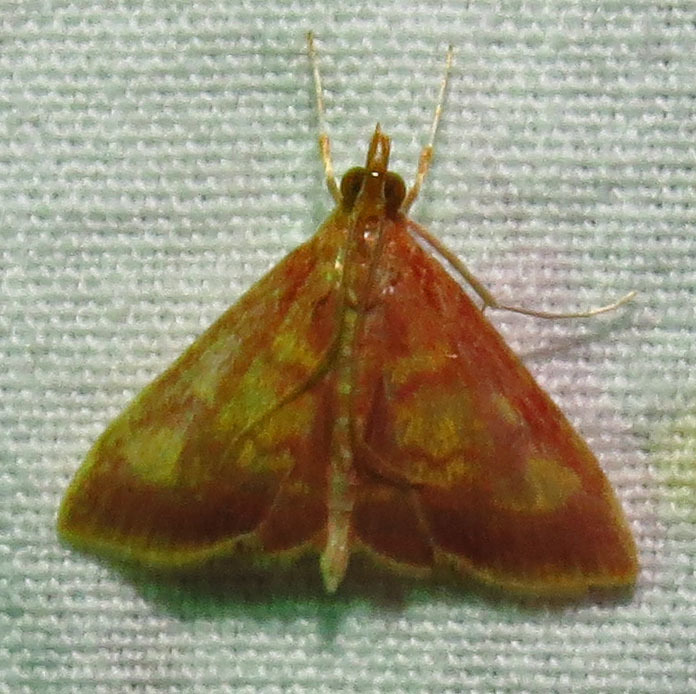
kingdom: Animalia
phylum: Arthropoda
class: Insecta
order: Lepidoptera
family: Crambidae
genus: Pyrausta
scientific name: Pyrausta acrionalis
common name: Mint-loving pyrausta moth
